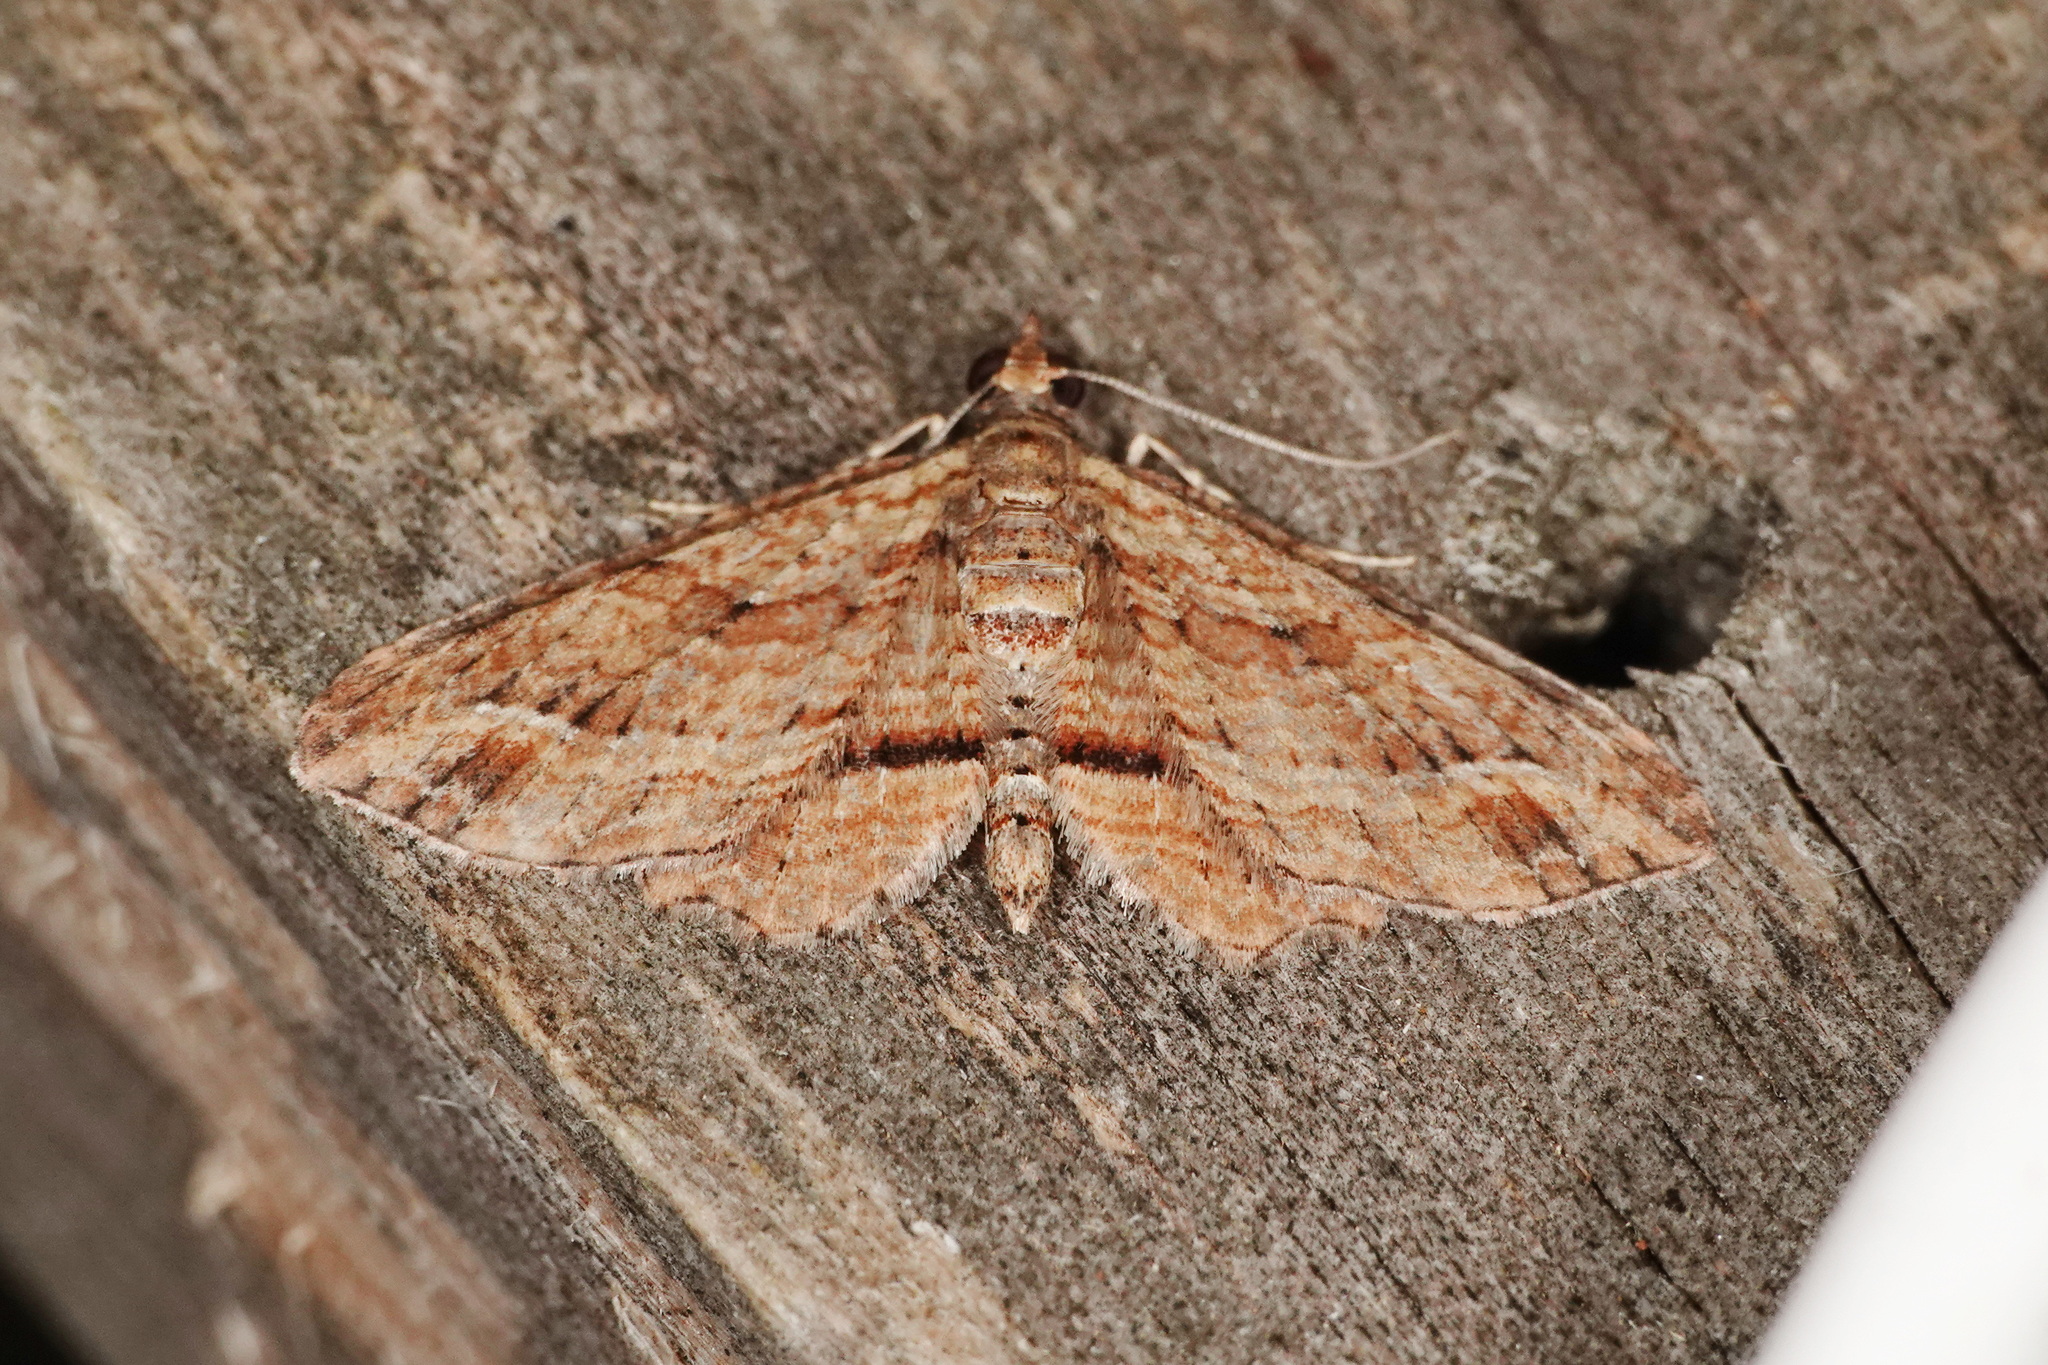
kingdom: Animalia
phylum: Arthropoda
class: Insecta
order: Lepidoptera
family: Geometridae
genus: Chloroclystis
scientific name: Chloroclystis filata
